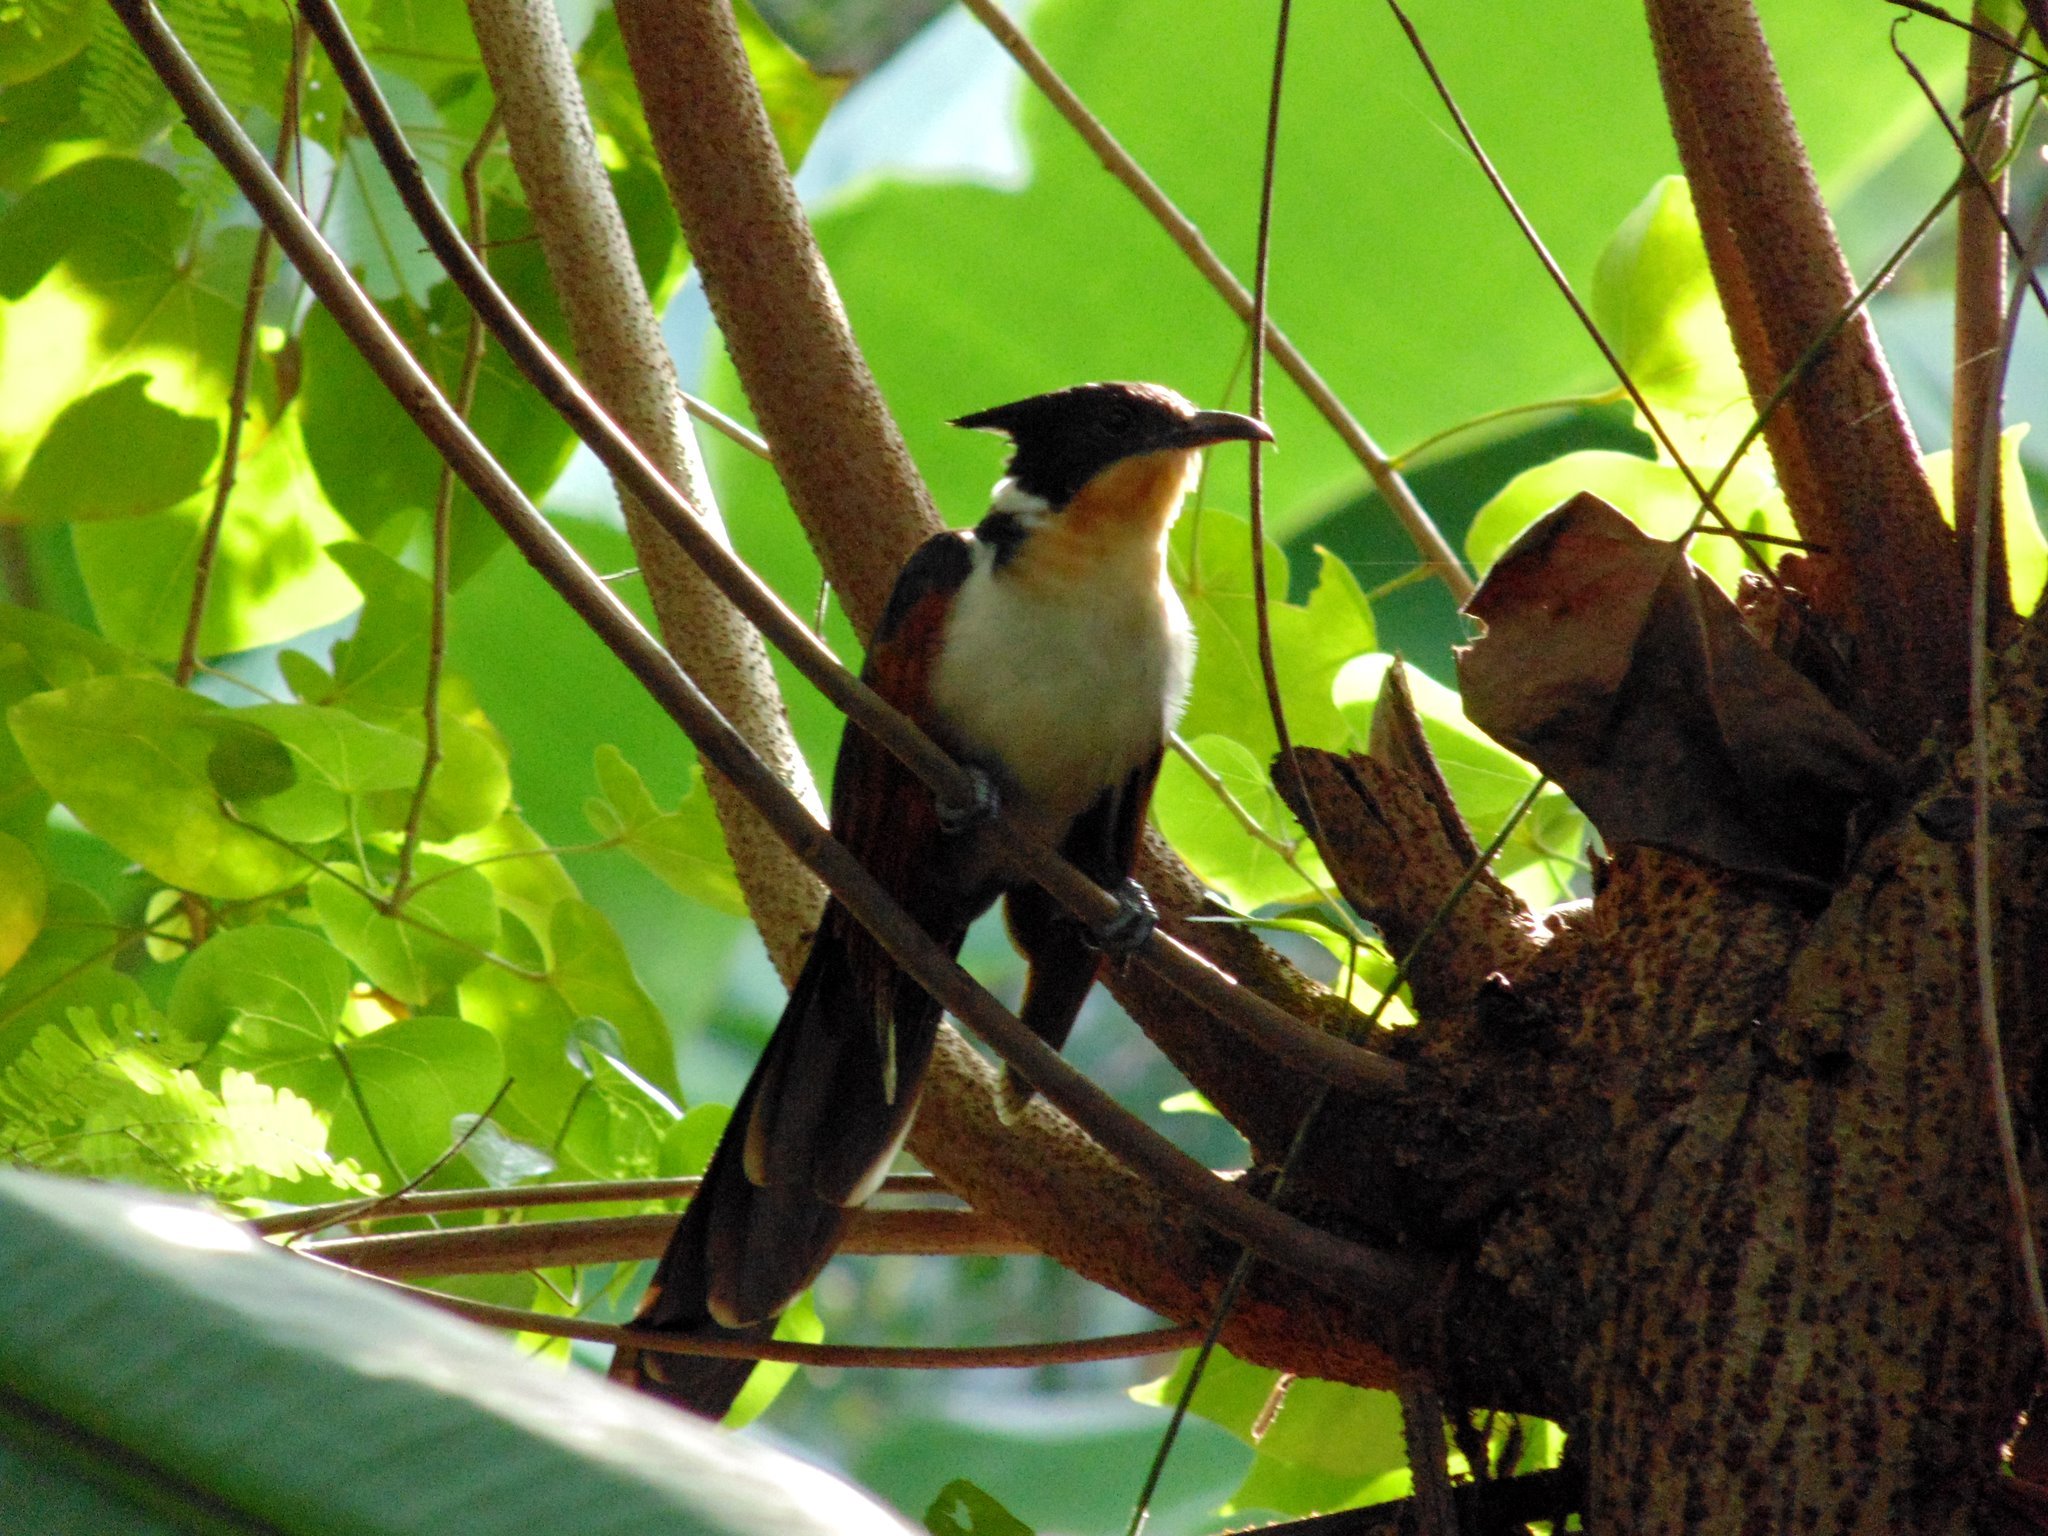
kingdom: Animalia
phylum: Chordata
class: Aves
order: Cuculiformes
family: Cuculidae
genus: Clamator
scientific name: Clamator coromandus
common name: Chestnut-winged cuckoo
